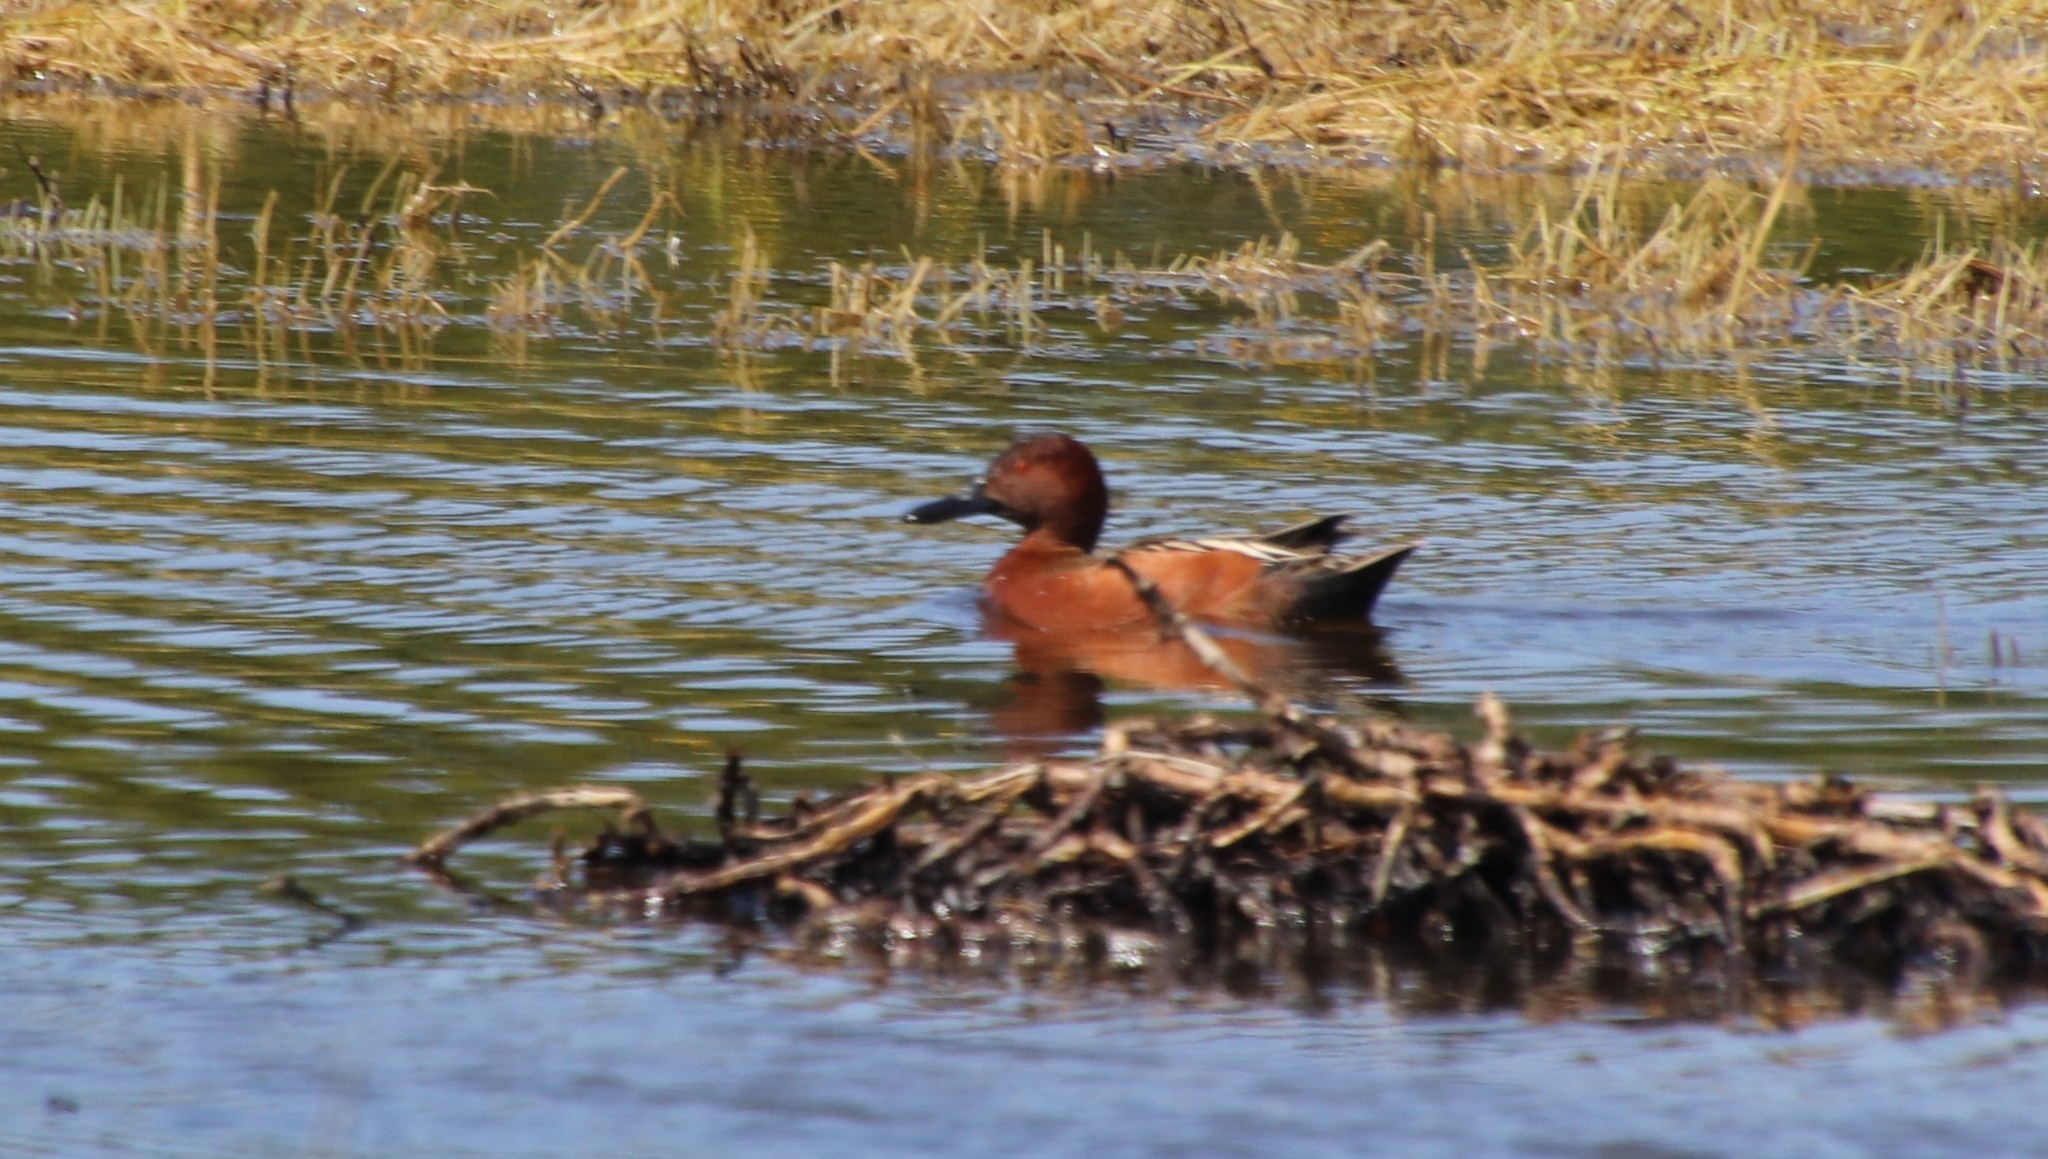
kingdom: Animalia
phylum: Chordata
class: Aves
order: Anseriformes
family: Anatidae
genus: Spatula
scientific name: Spatula cyanoptera
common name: Cinnamon teal
